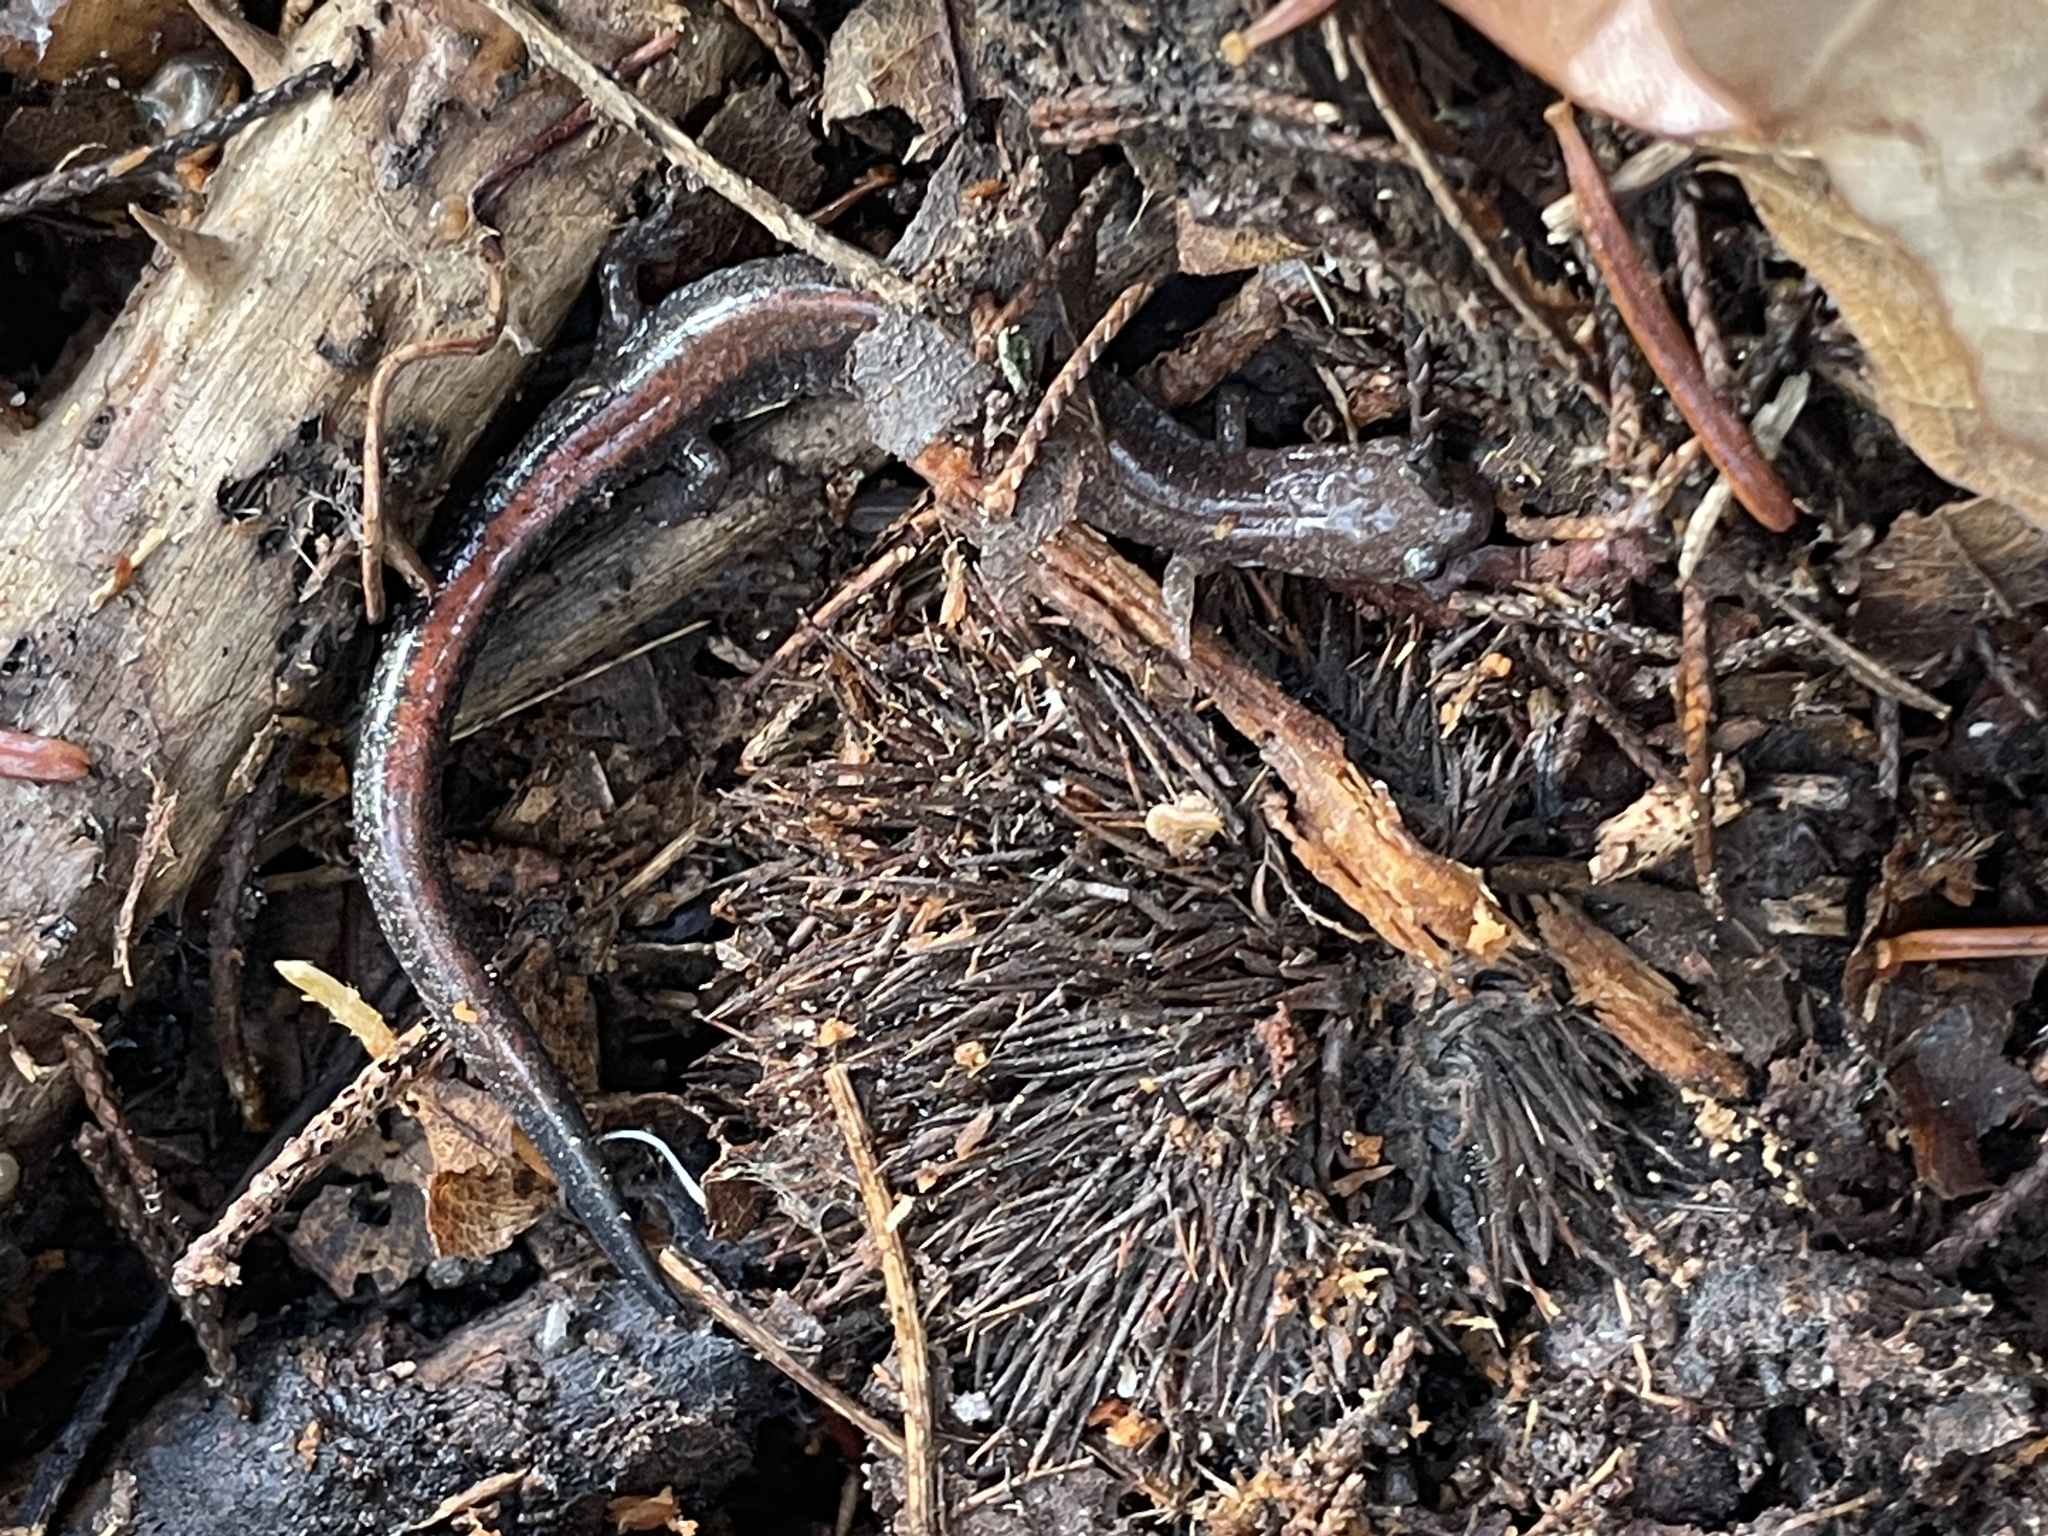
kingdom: Animalia
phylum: Chordata
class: Amphibia
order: Caudata
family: Plethodontidae
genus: Plethodon
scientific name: Plethodon cinereus
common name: Redback salamander
